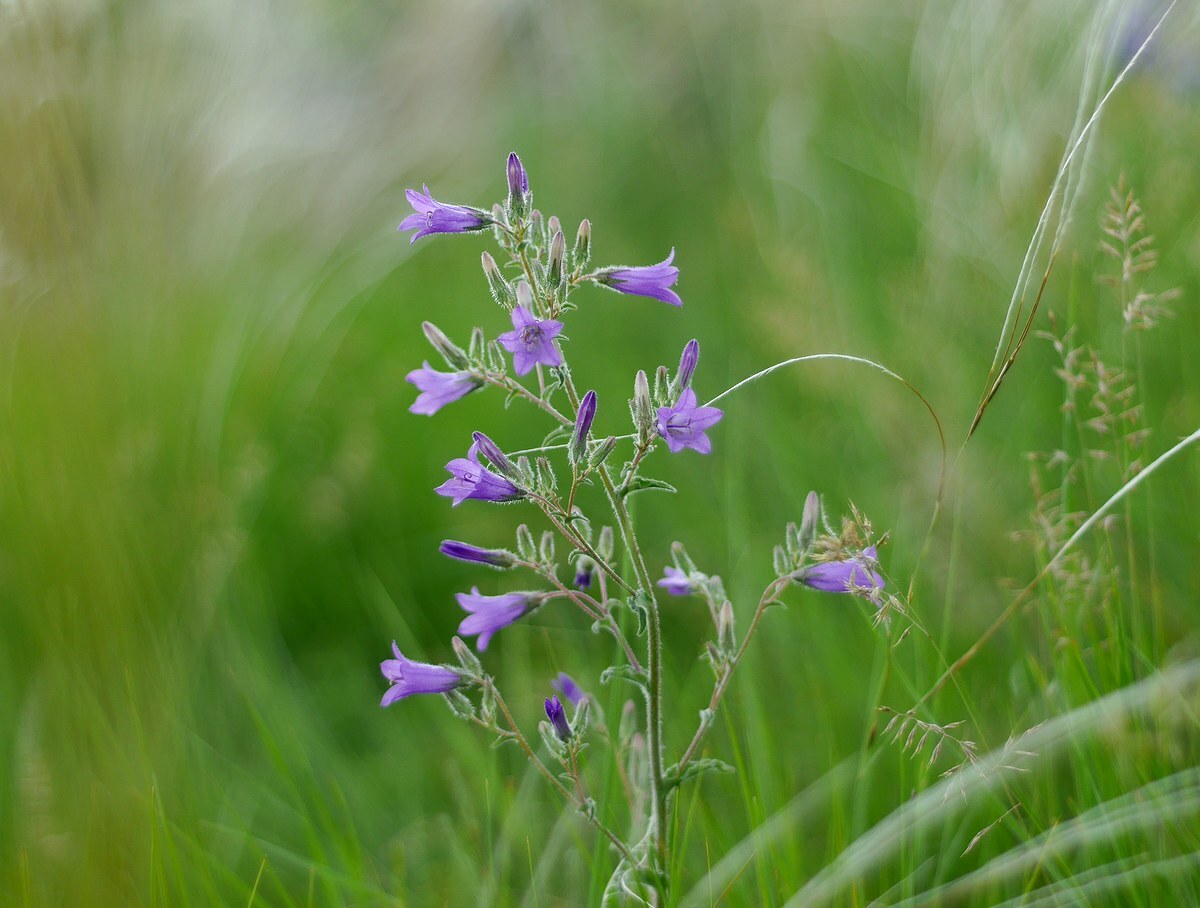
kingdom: Plantae
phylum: Tracheophyta
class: Magnoliopsida
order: Asterales
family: Campanulaceae
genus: Campanula
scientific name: Campanula sibirica
